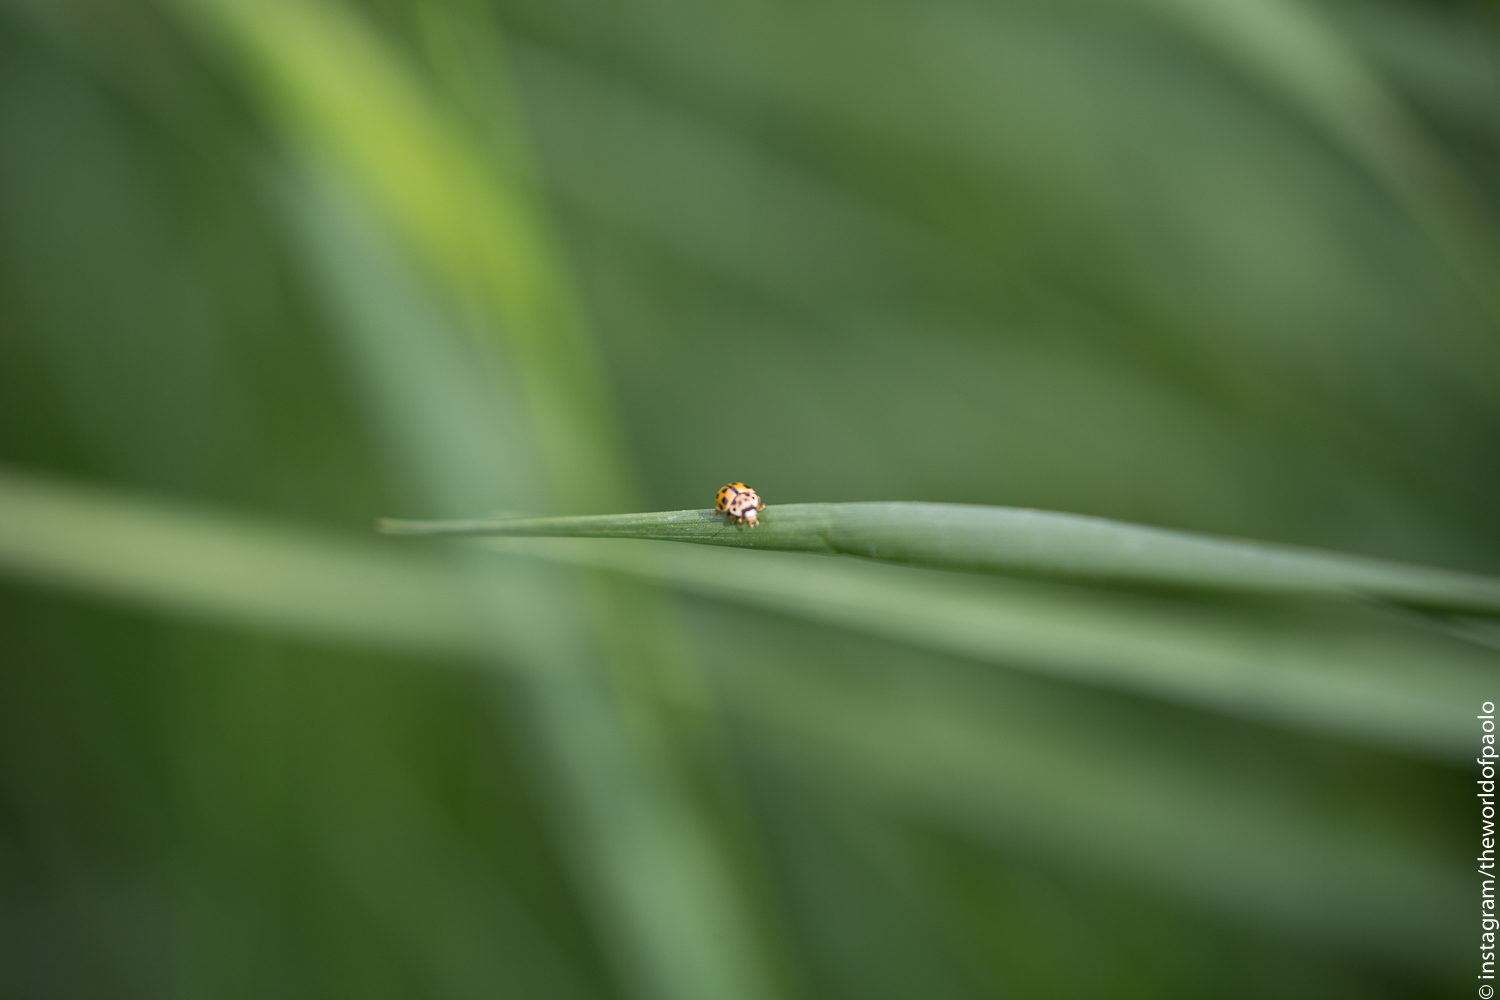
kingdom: Animalia
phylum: Arthropoda
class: Insecta
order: Coleoptera
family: Coccinellidae
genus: Propylaea
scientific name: Propylaea quatuordecimpunctata
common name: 14-spotted ladybird beetle
